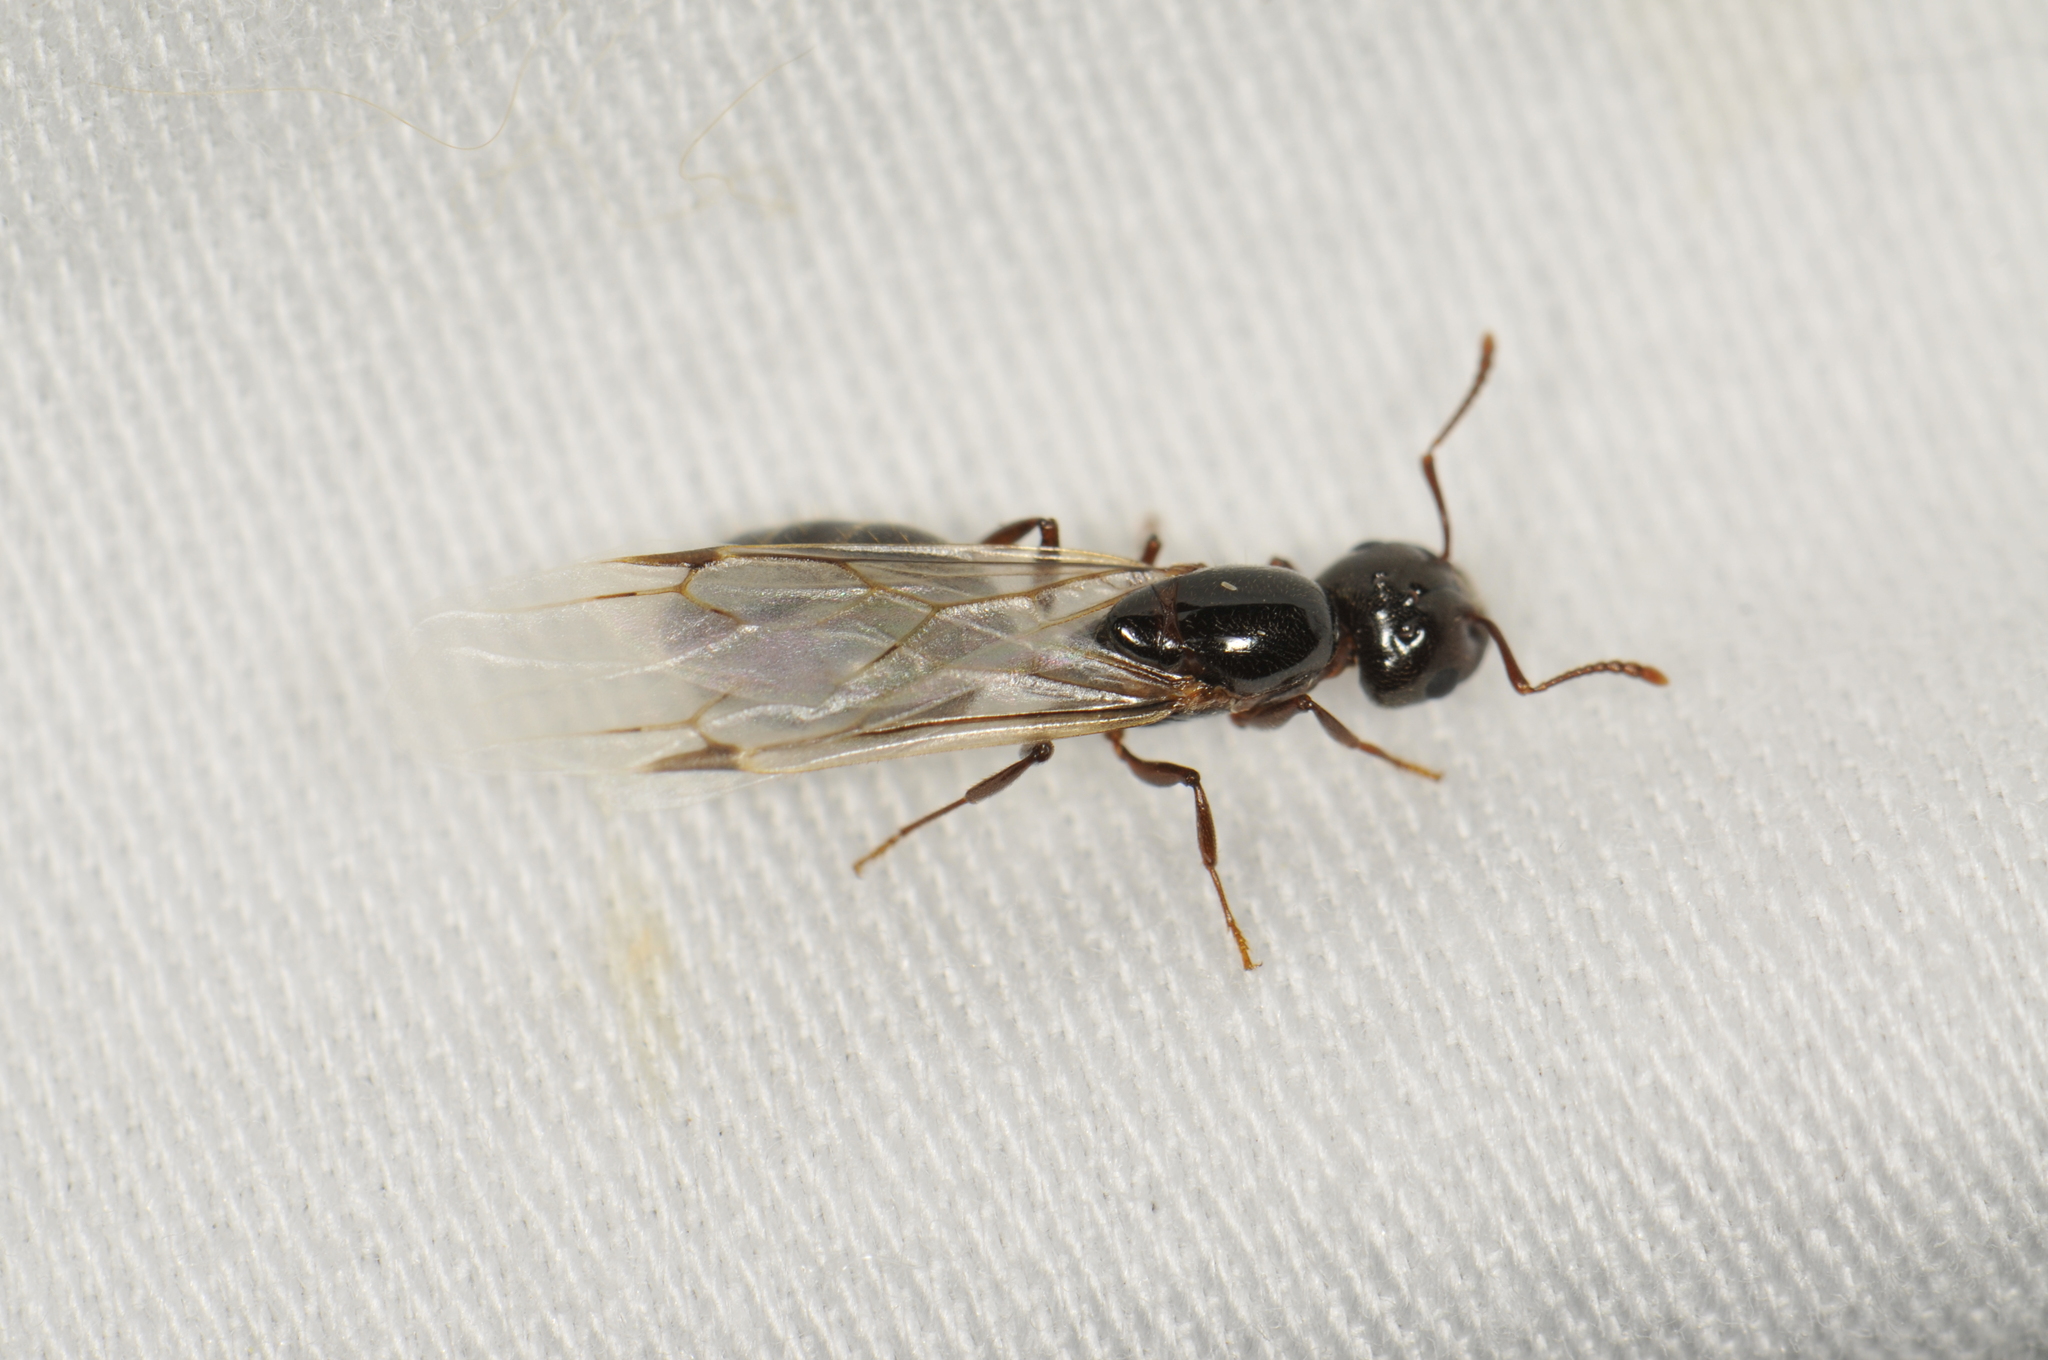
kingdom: Animalia
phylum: Arthropoda
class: Insecta
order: Hymenoptera
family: Formicidae
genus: Crematogaster
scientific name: Crematogaster
